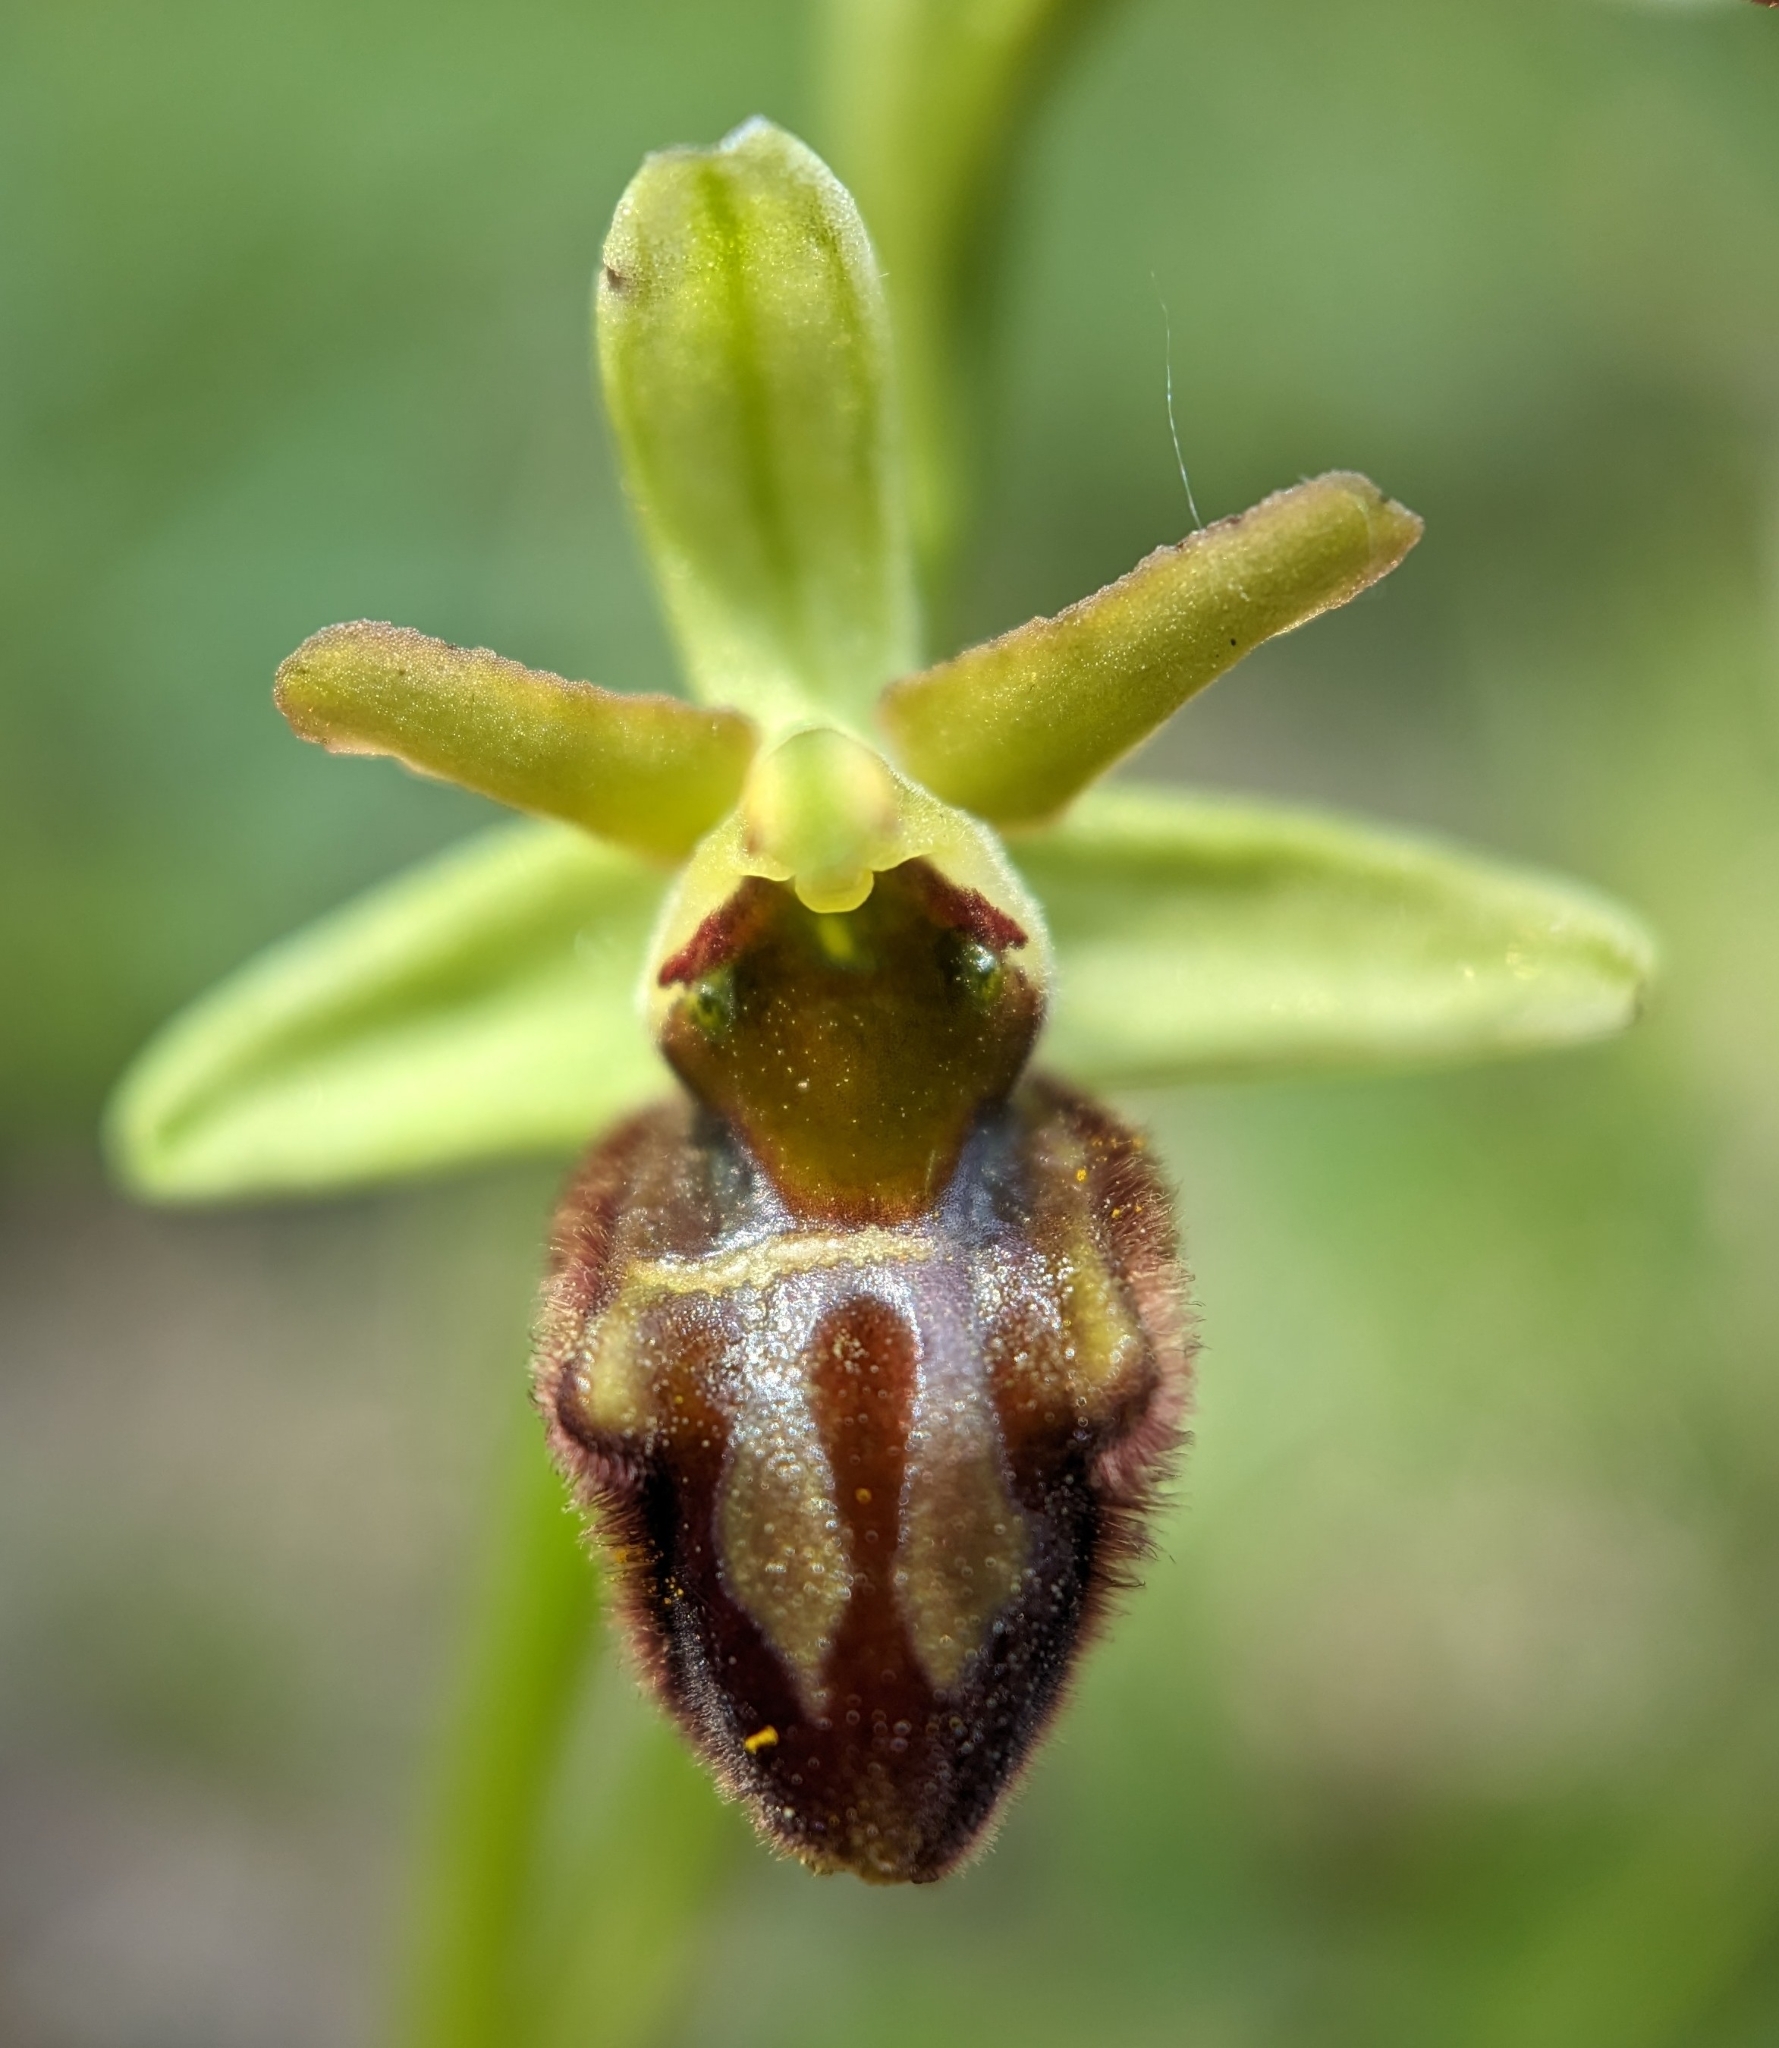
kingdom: Plantae
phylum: Tracheophyta
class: Liliopsida
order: Asparagales
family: Orchidaceae
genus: Ophrys
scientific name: Ophrys sphegodes
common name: Early spider-orchid
